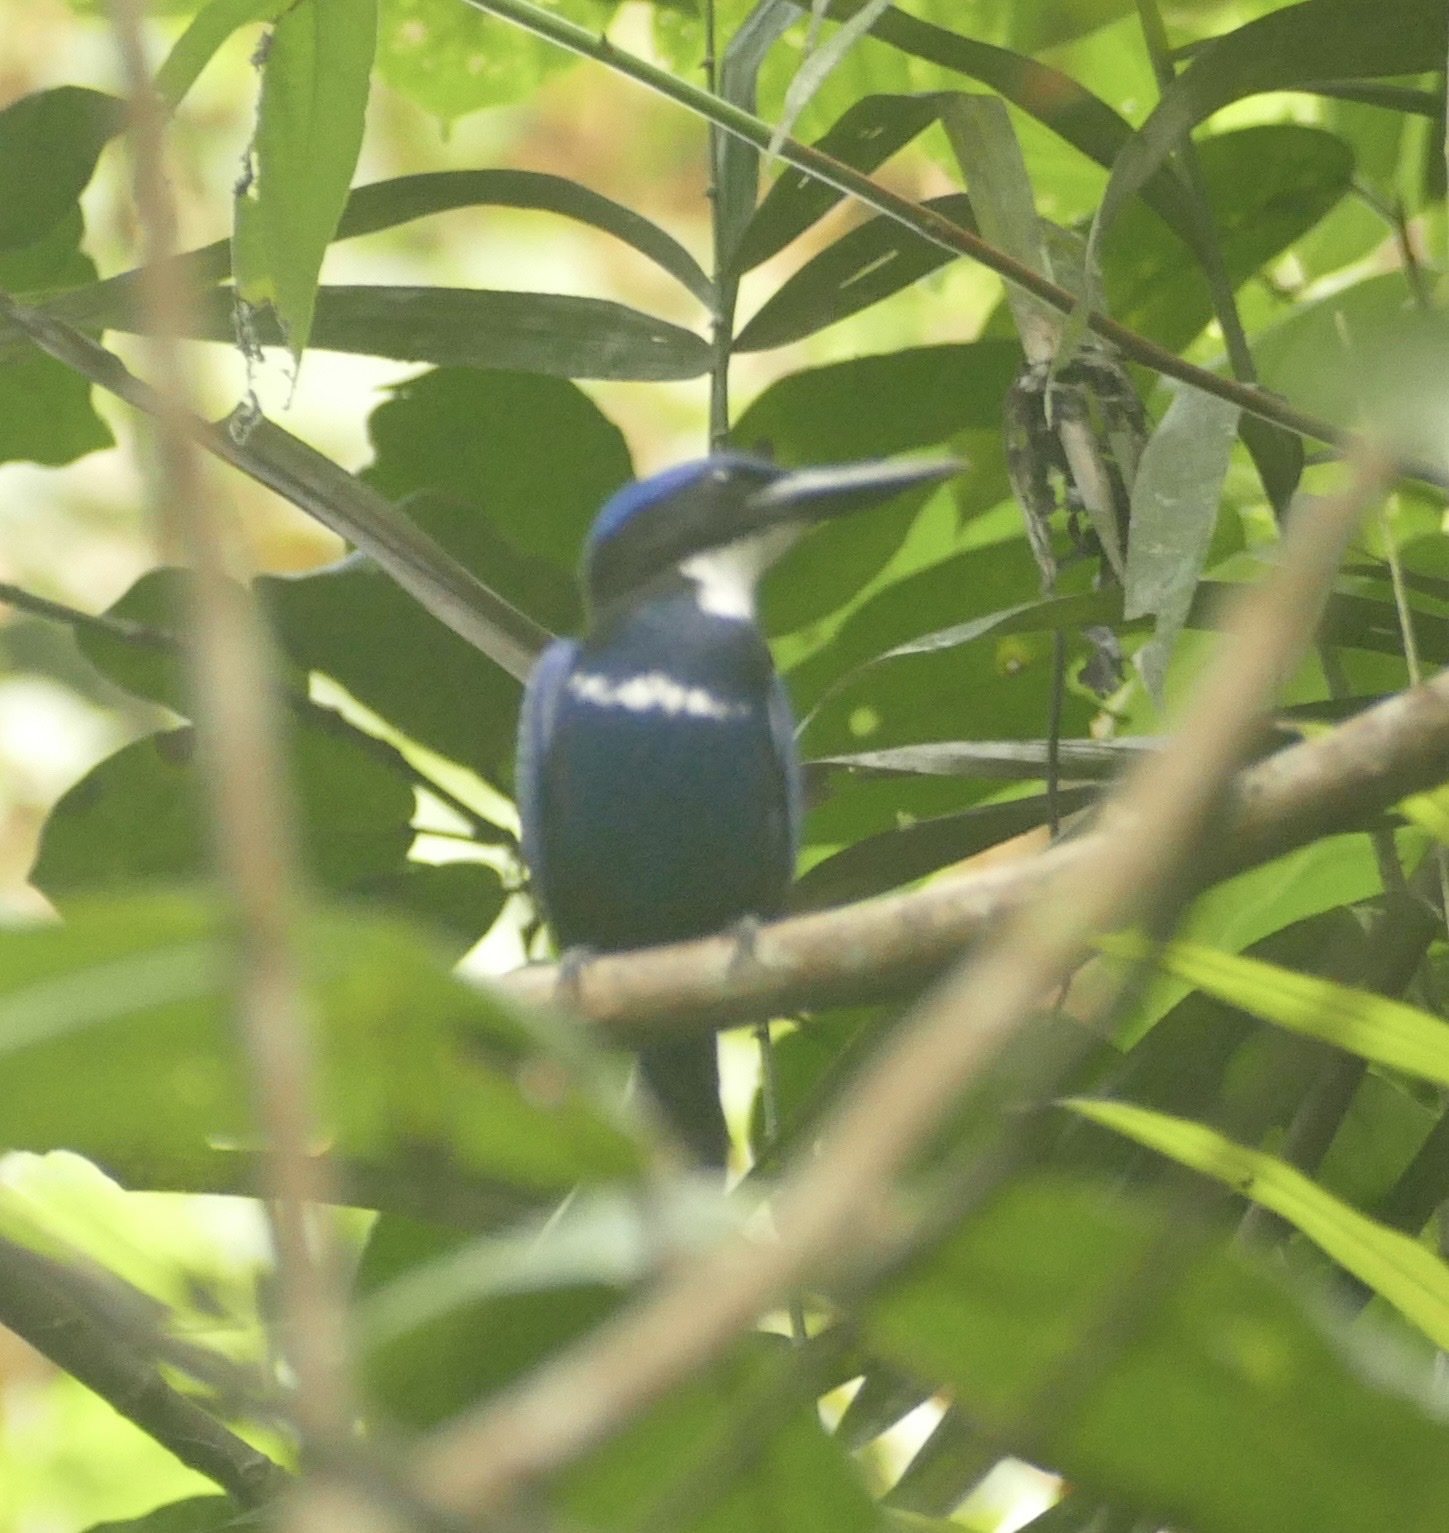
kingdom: Animalia
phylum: Chordata
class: Aves
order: Coraciiformes
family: Alcedinidae
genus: Todiramphus
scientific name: Todiramphus nigrocyaneus
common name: Blue-black kingfisher
